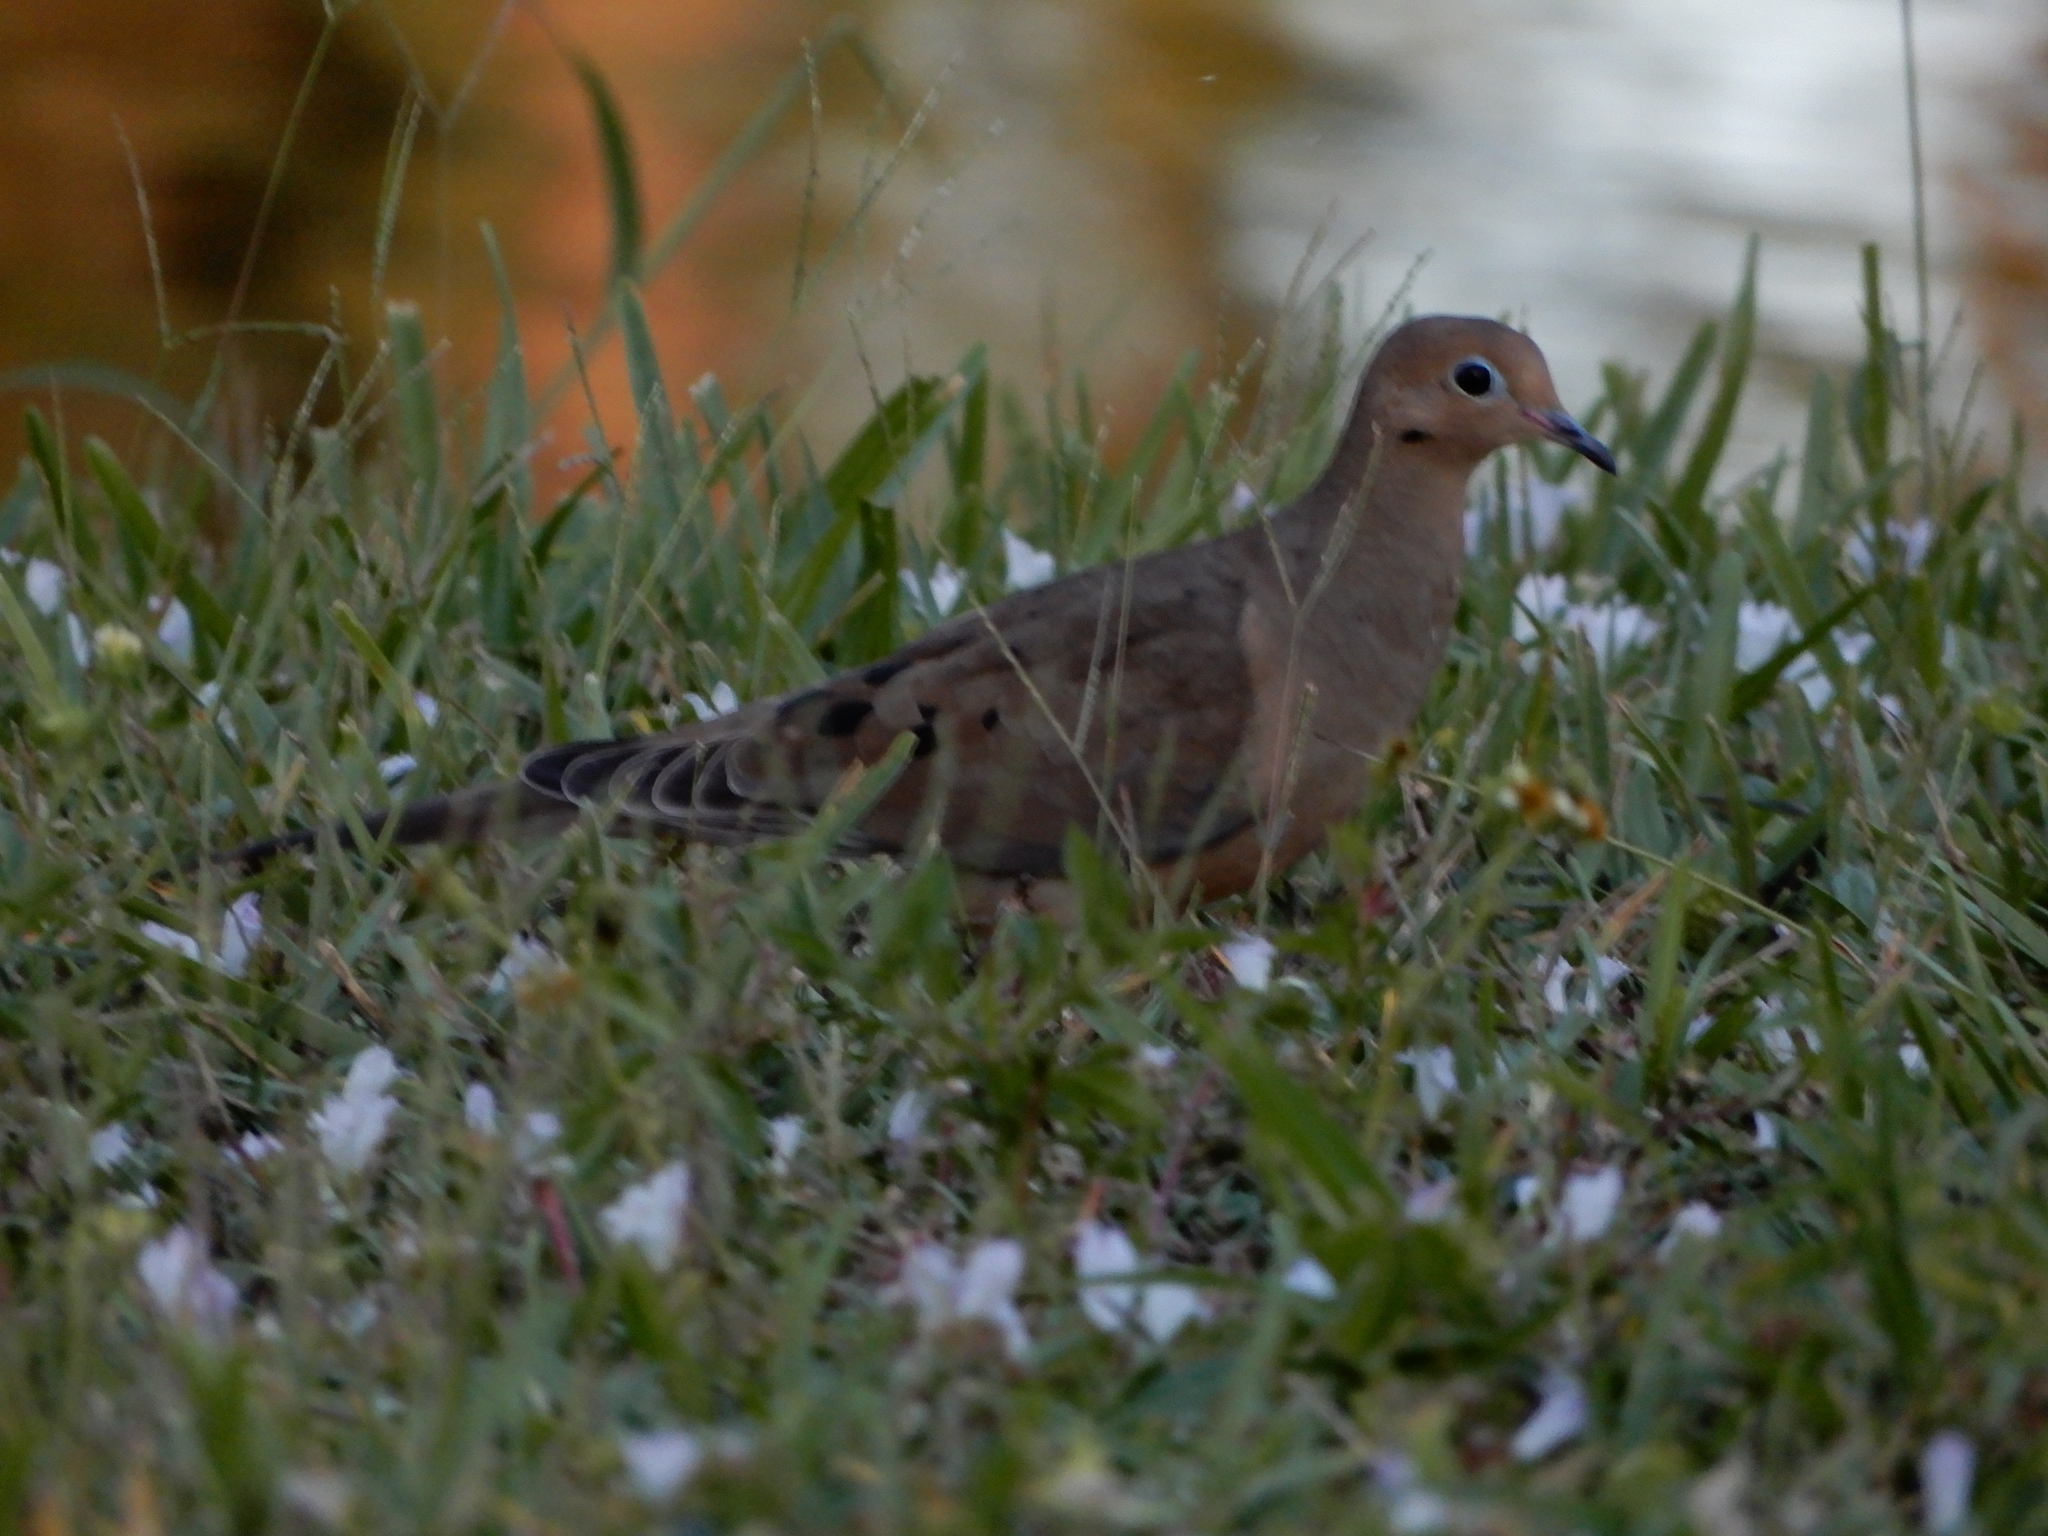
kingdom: Animalia
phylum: Chordata
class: Aves
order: Columbiformes
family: Columbidae
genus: Zenaida
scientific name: Zenaida macroura
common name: Mourning dove
